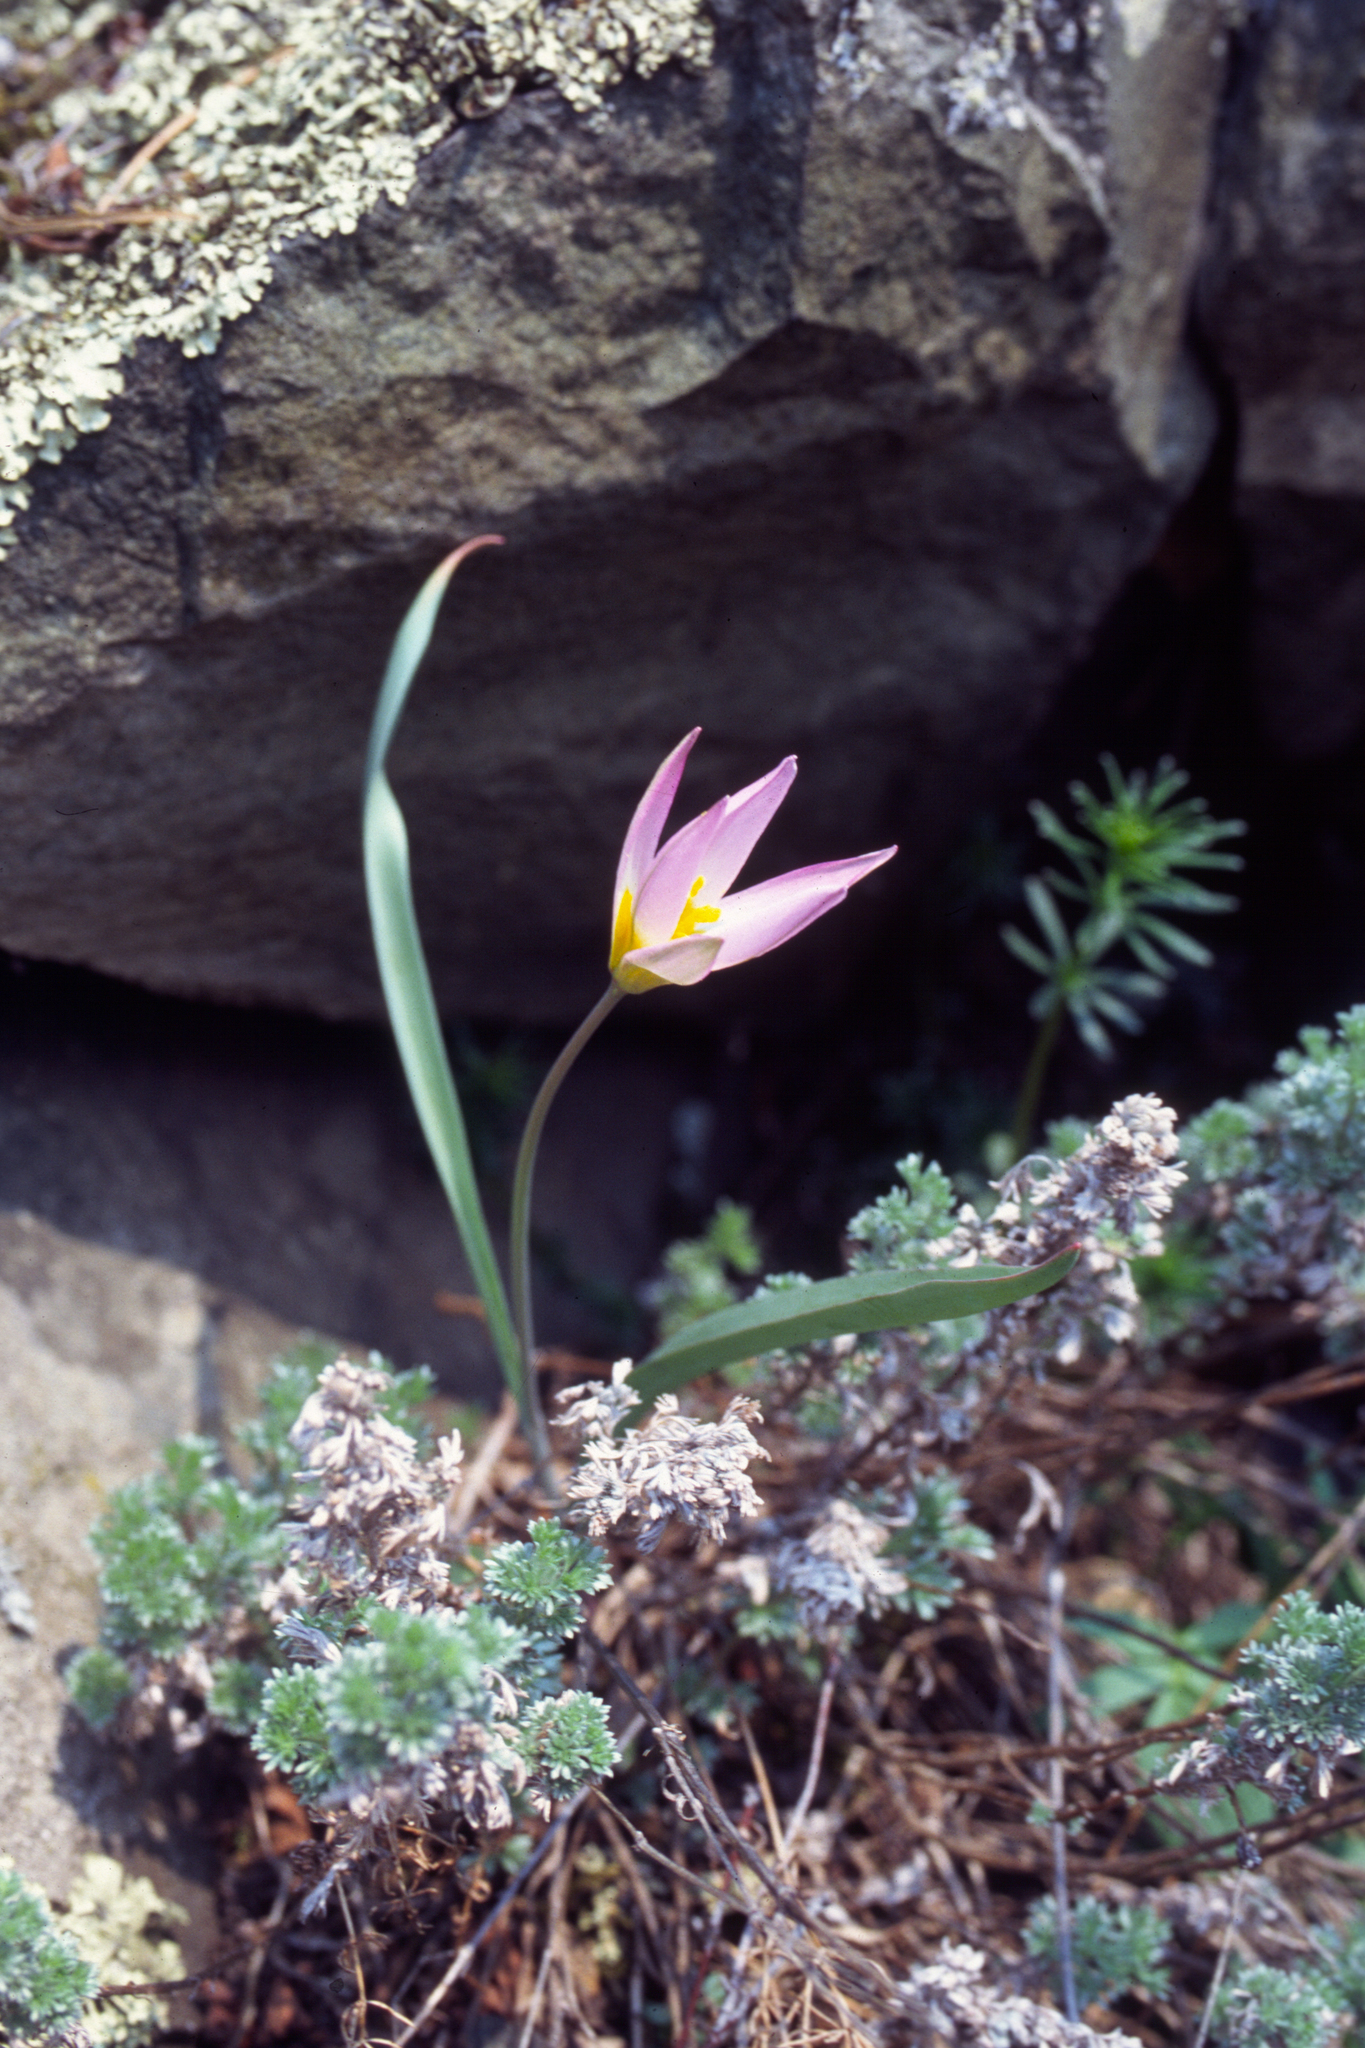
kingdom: Plantae
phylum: Tracheophyta
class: Liliopsida
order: Liliales
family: Liliaceae
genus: Tulipa
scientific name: Tulipa patens
